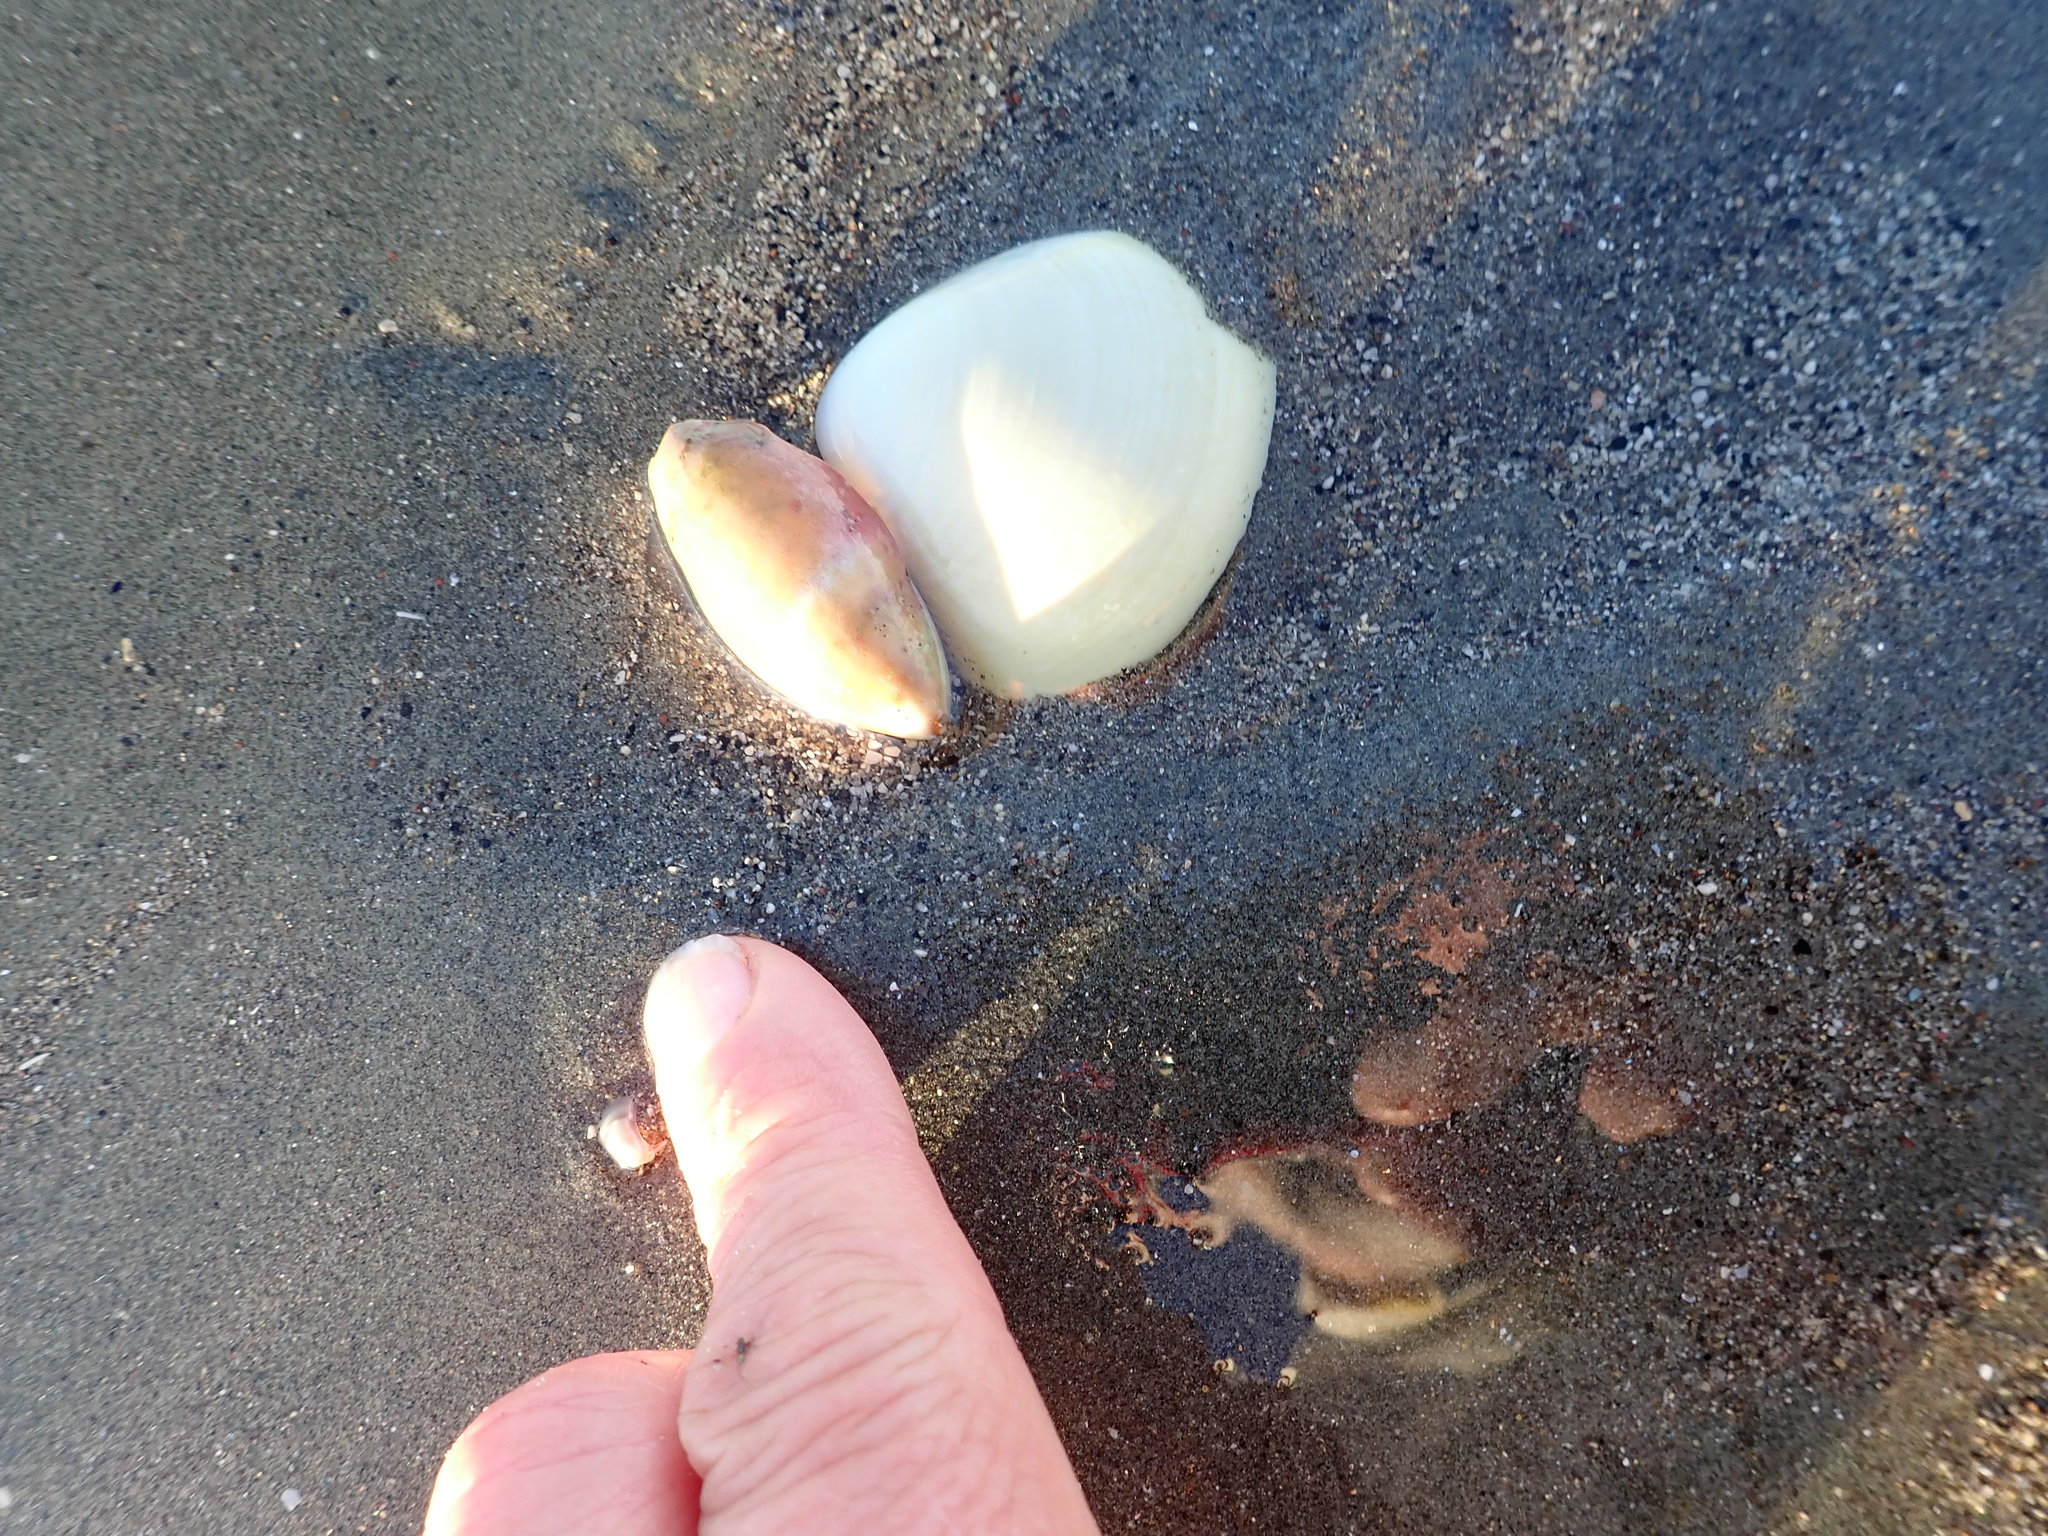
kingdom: Animalia
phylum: Mollusca
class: Gastropoda
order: Neogastropoda
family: Ancillariidae
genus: Amalda
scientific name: Amalda mucronata
